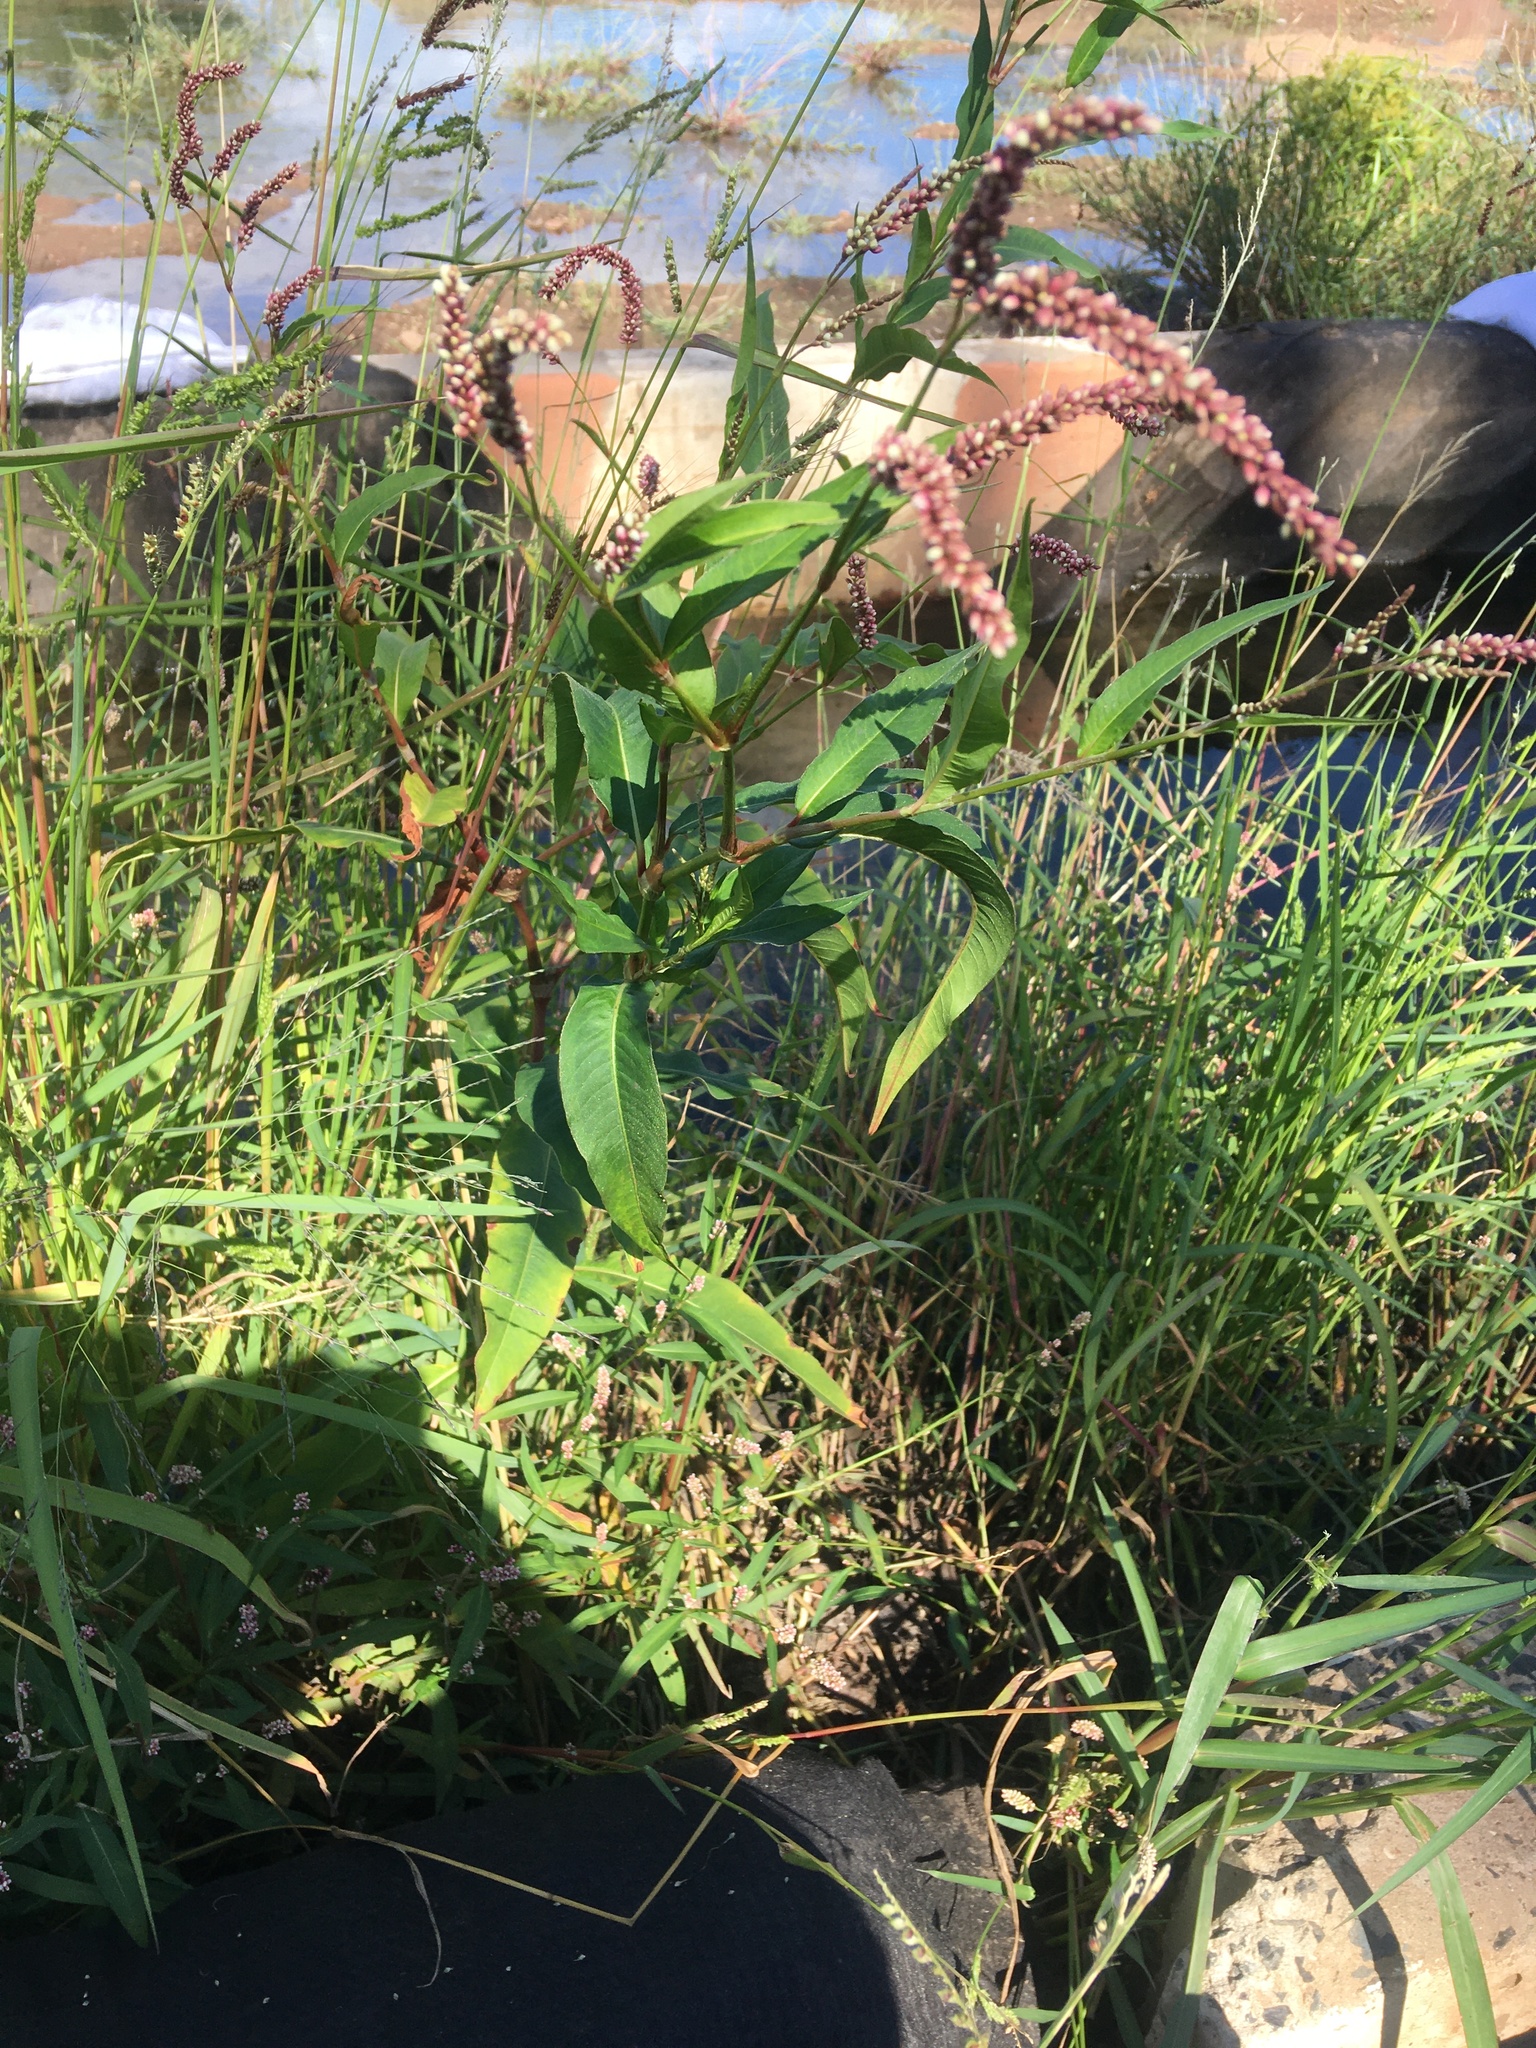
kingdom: Plantae
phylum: Tracheophyta
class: Magnoliopsida
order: Caryophyllales
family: Polygonaceae
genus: Persicaria
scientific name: Persicaria extremiorientalis
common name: Far-eastern smartweed
